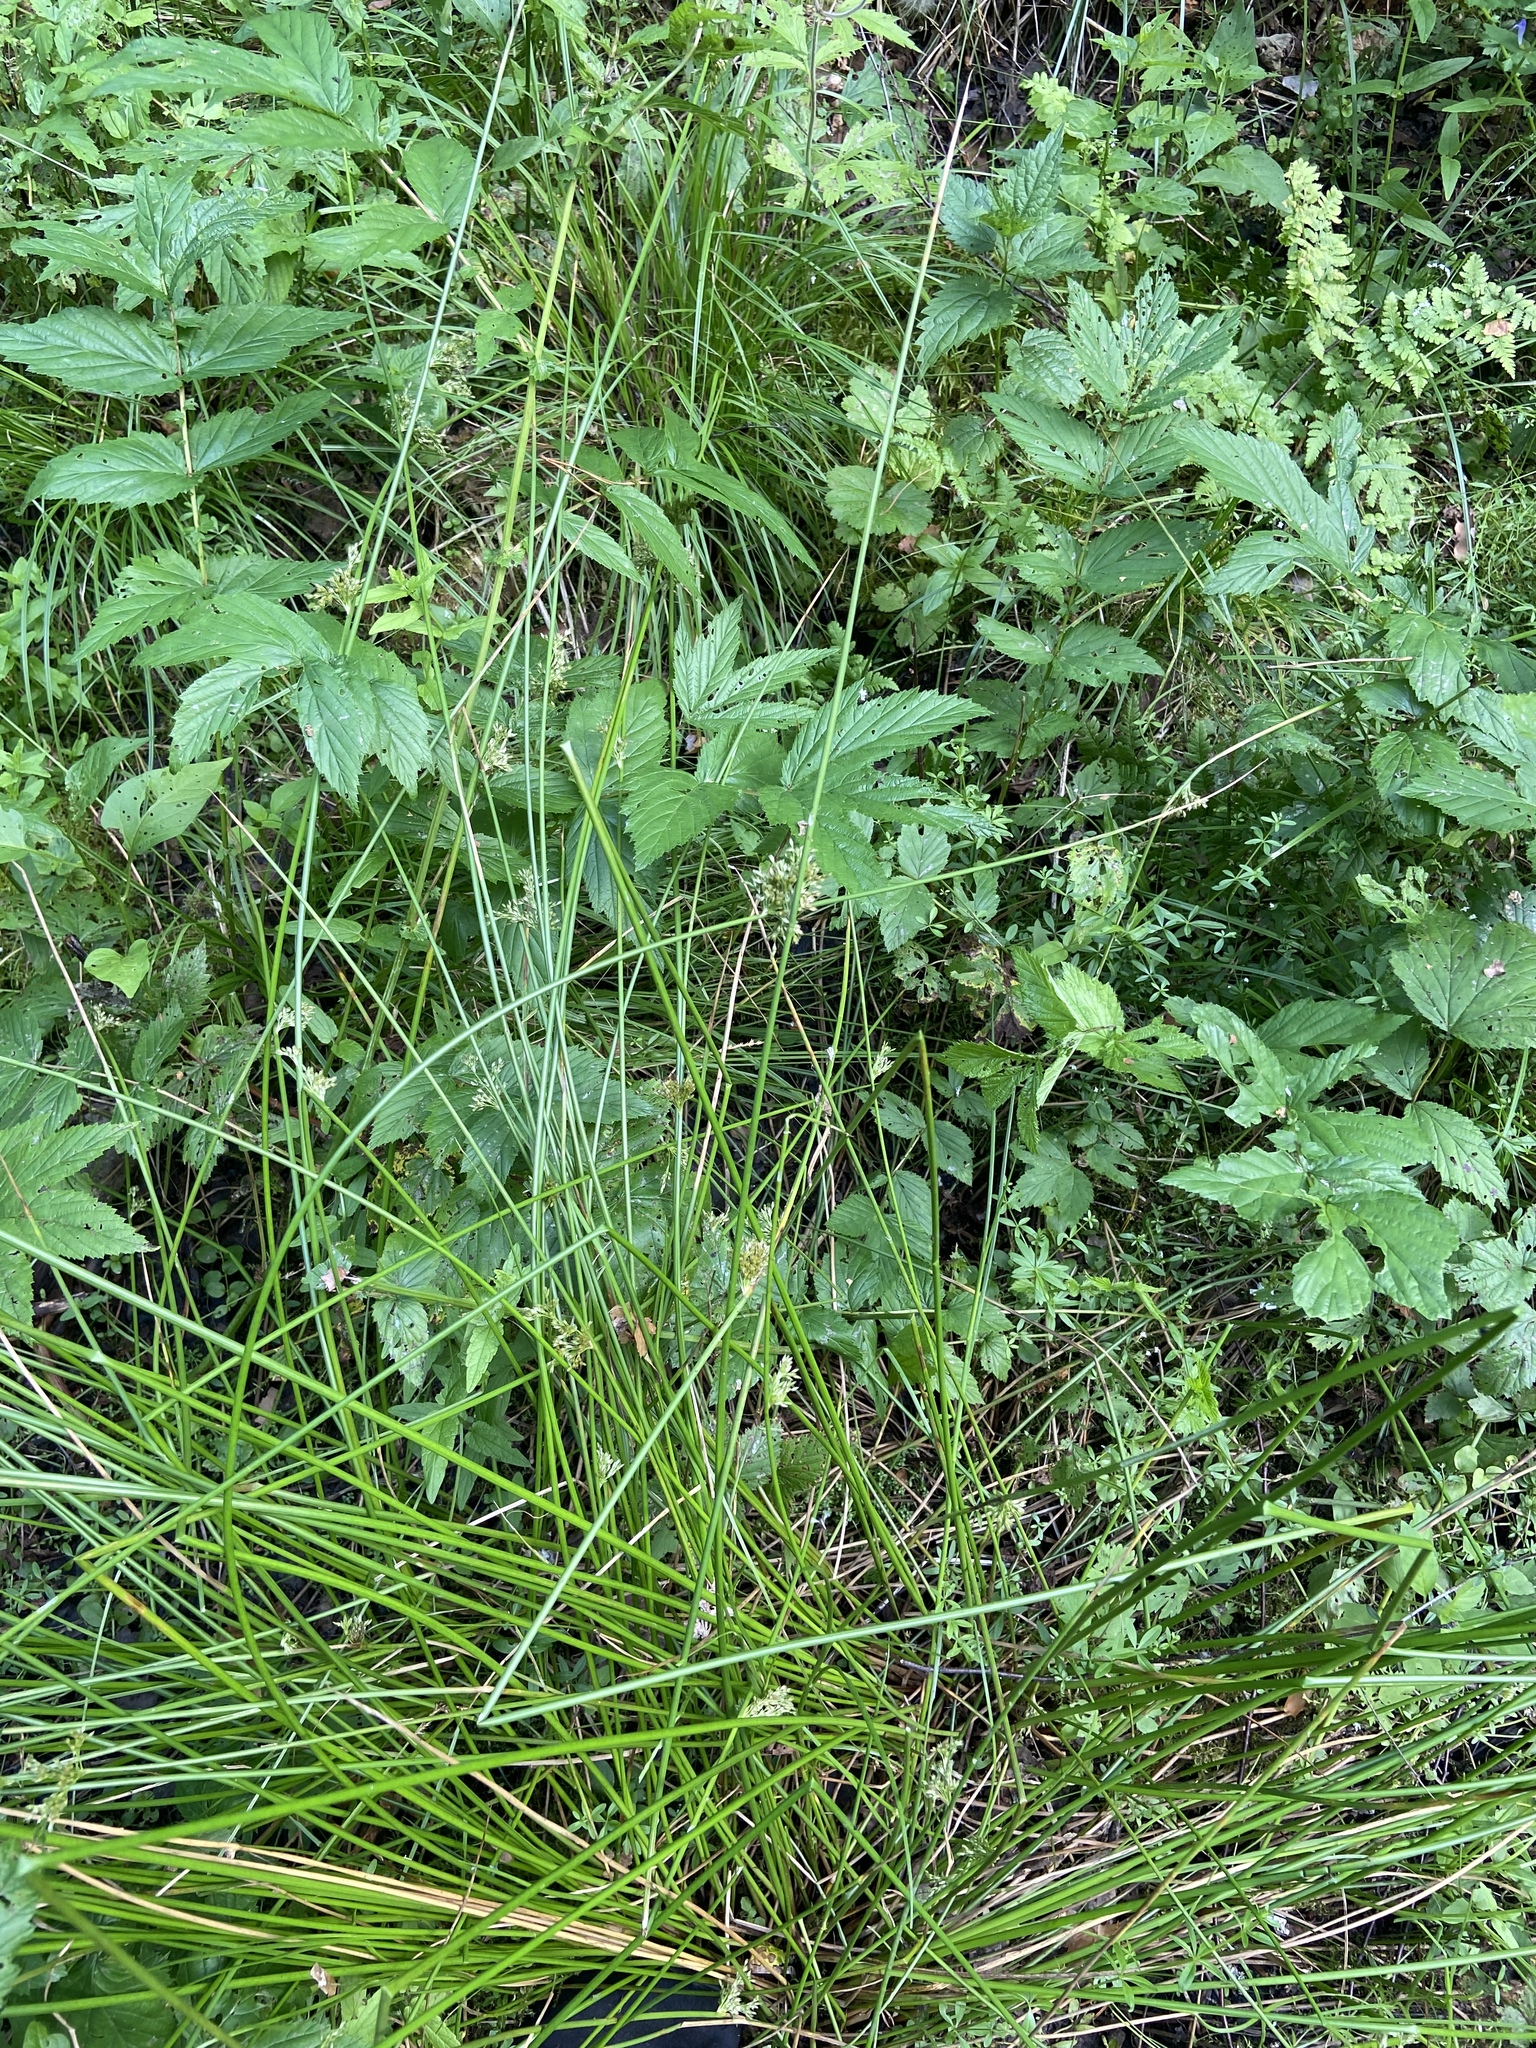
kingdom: Plantae
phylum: Tracheophyta
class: Liliopsida
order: Poales
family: Juncaceae
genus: Juncus
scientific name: Juncus effusus
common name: Soft rush
